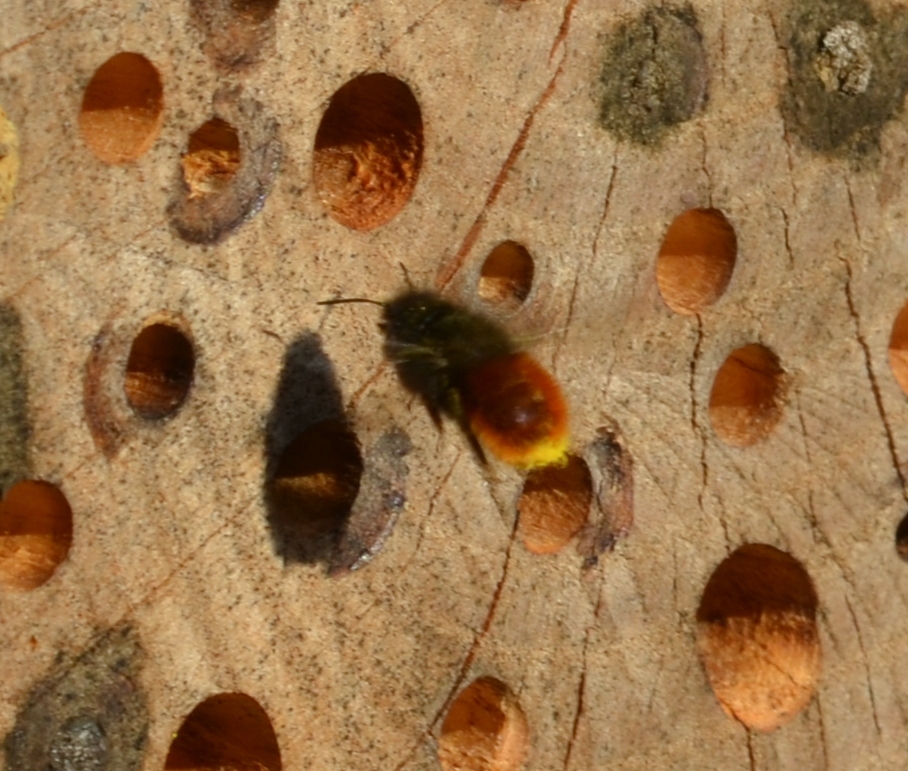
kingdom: Animalia
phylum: Arthropoda
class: Insecta
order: Hymenoptera
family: Megachilidae
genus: Osmia
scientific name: Osmia cornuta
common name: Mason bee
